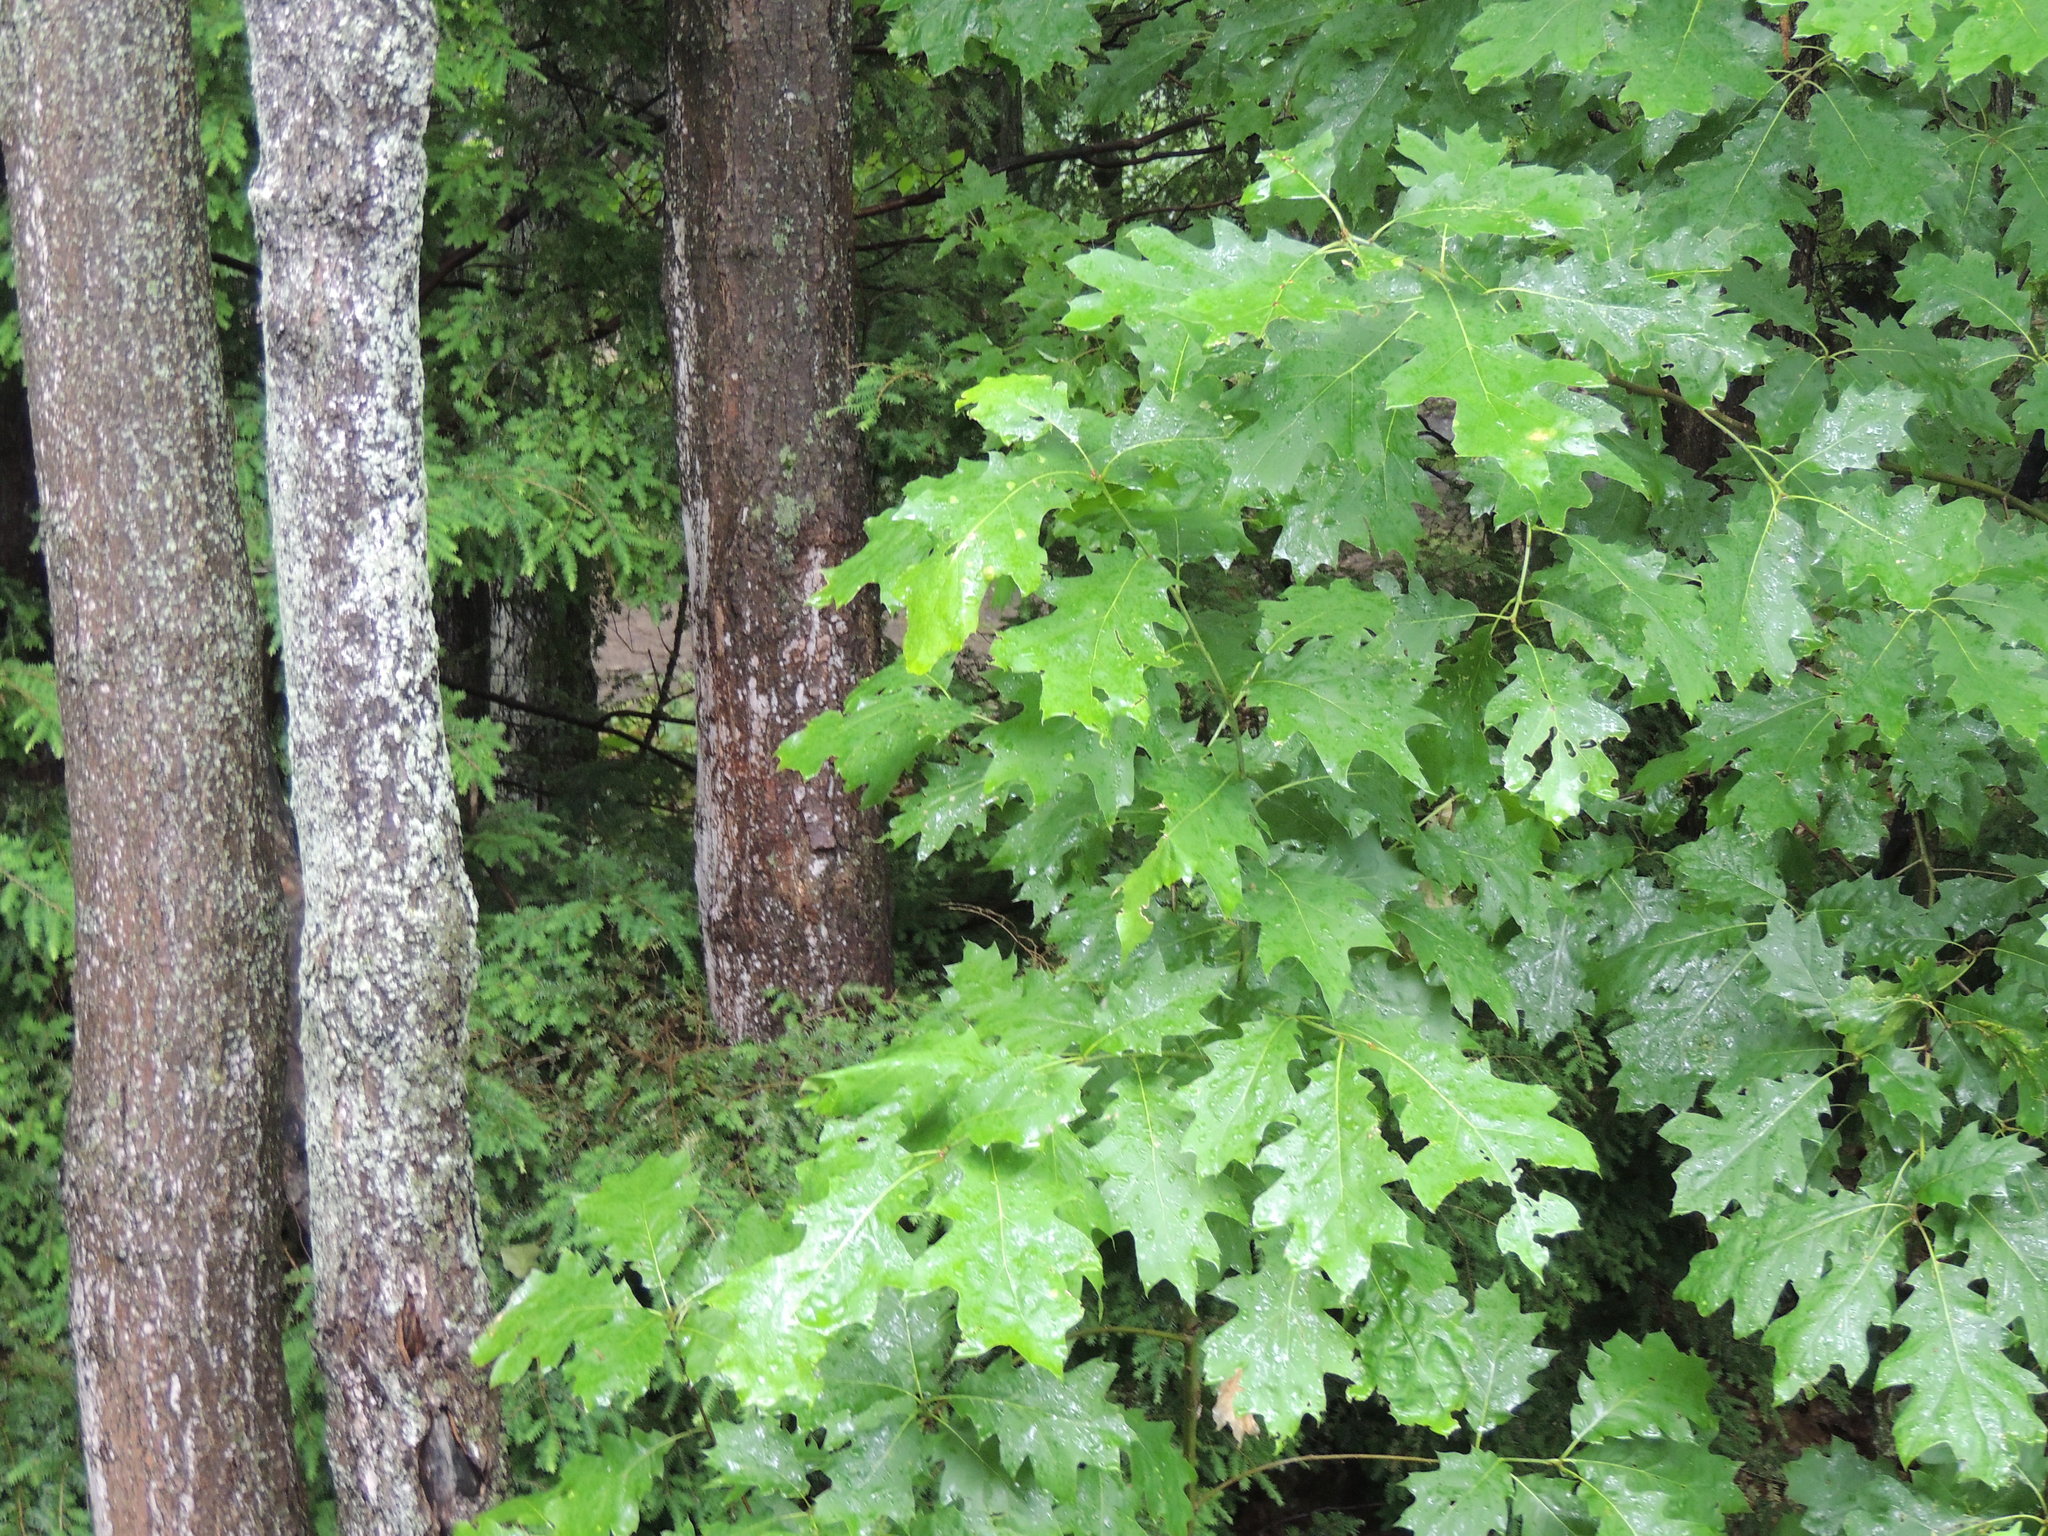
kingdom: Plantae
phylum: Tracheophyta
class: Magnoliopsida
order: Fagales
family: Fagaceae
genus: Quercus
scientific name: Quercus rubra
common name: Red oak
